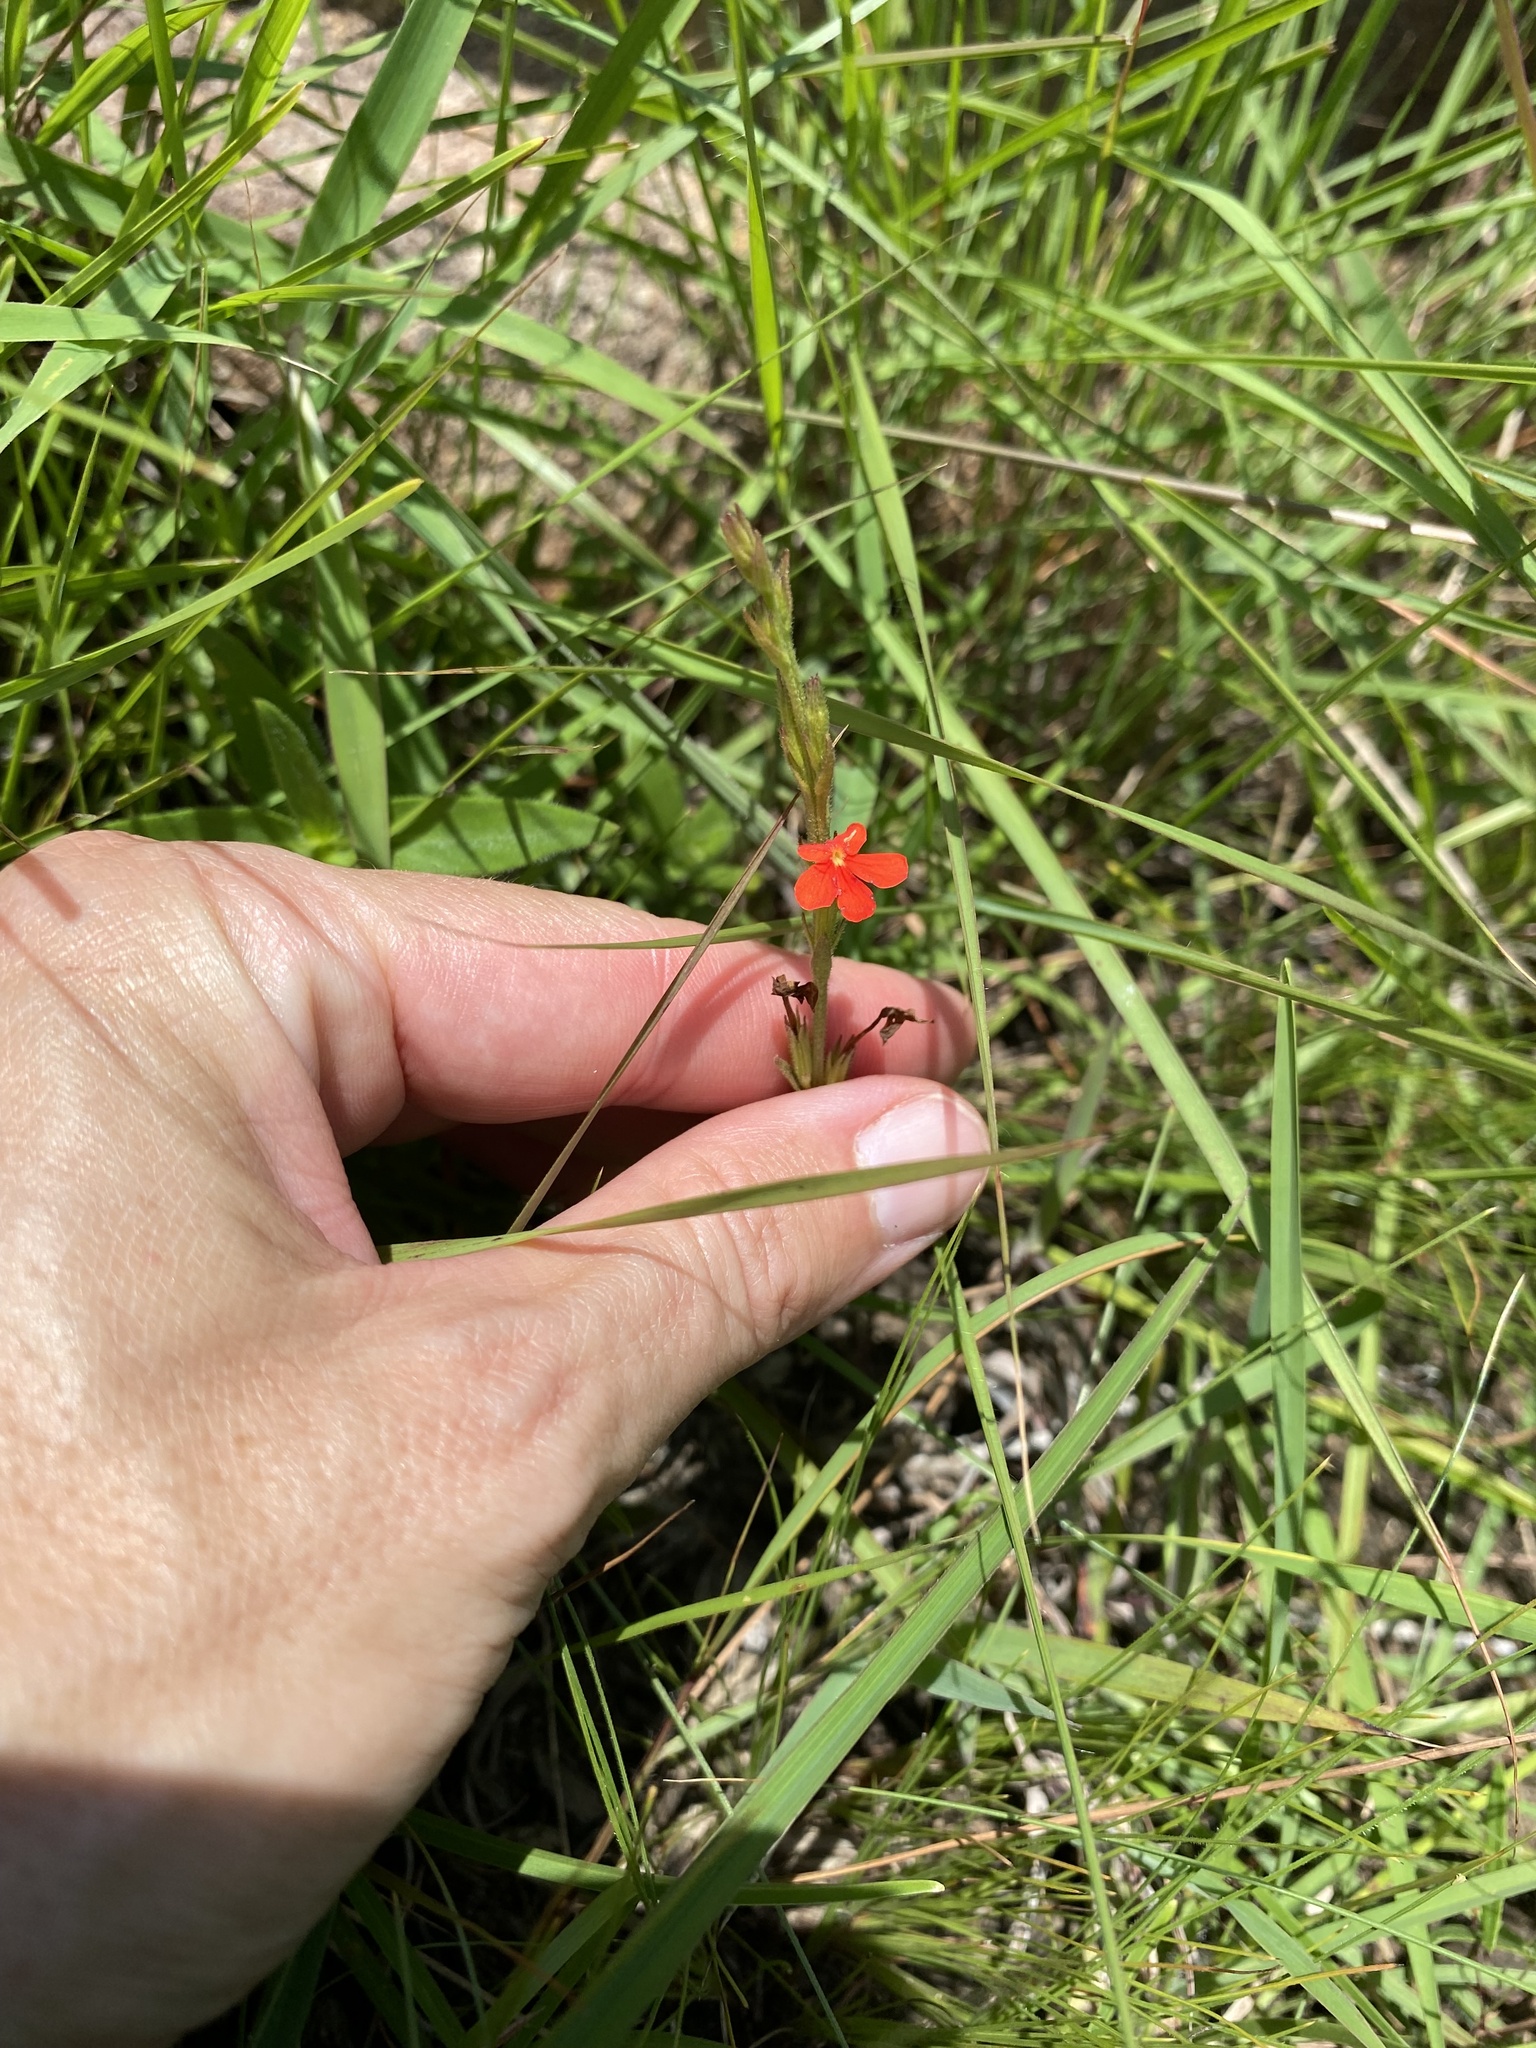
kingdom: Plantae
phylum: Tracheophyta
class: Magnoliopsida
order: Lamiales
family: Orobanchaceae
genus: Striga
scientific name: Striga elegans
